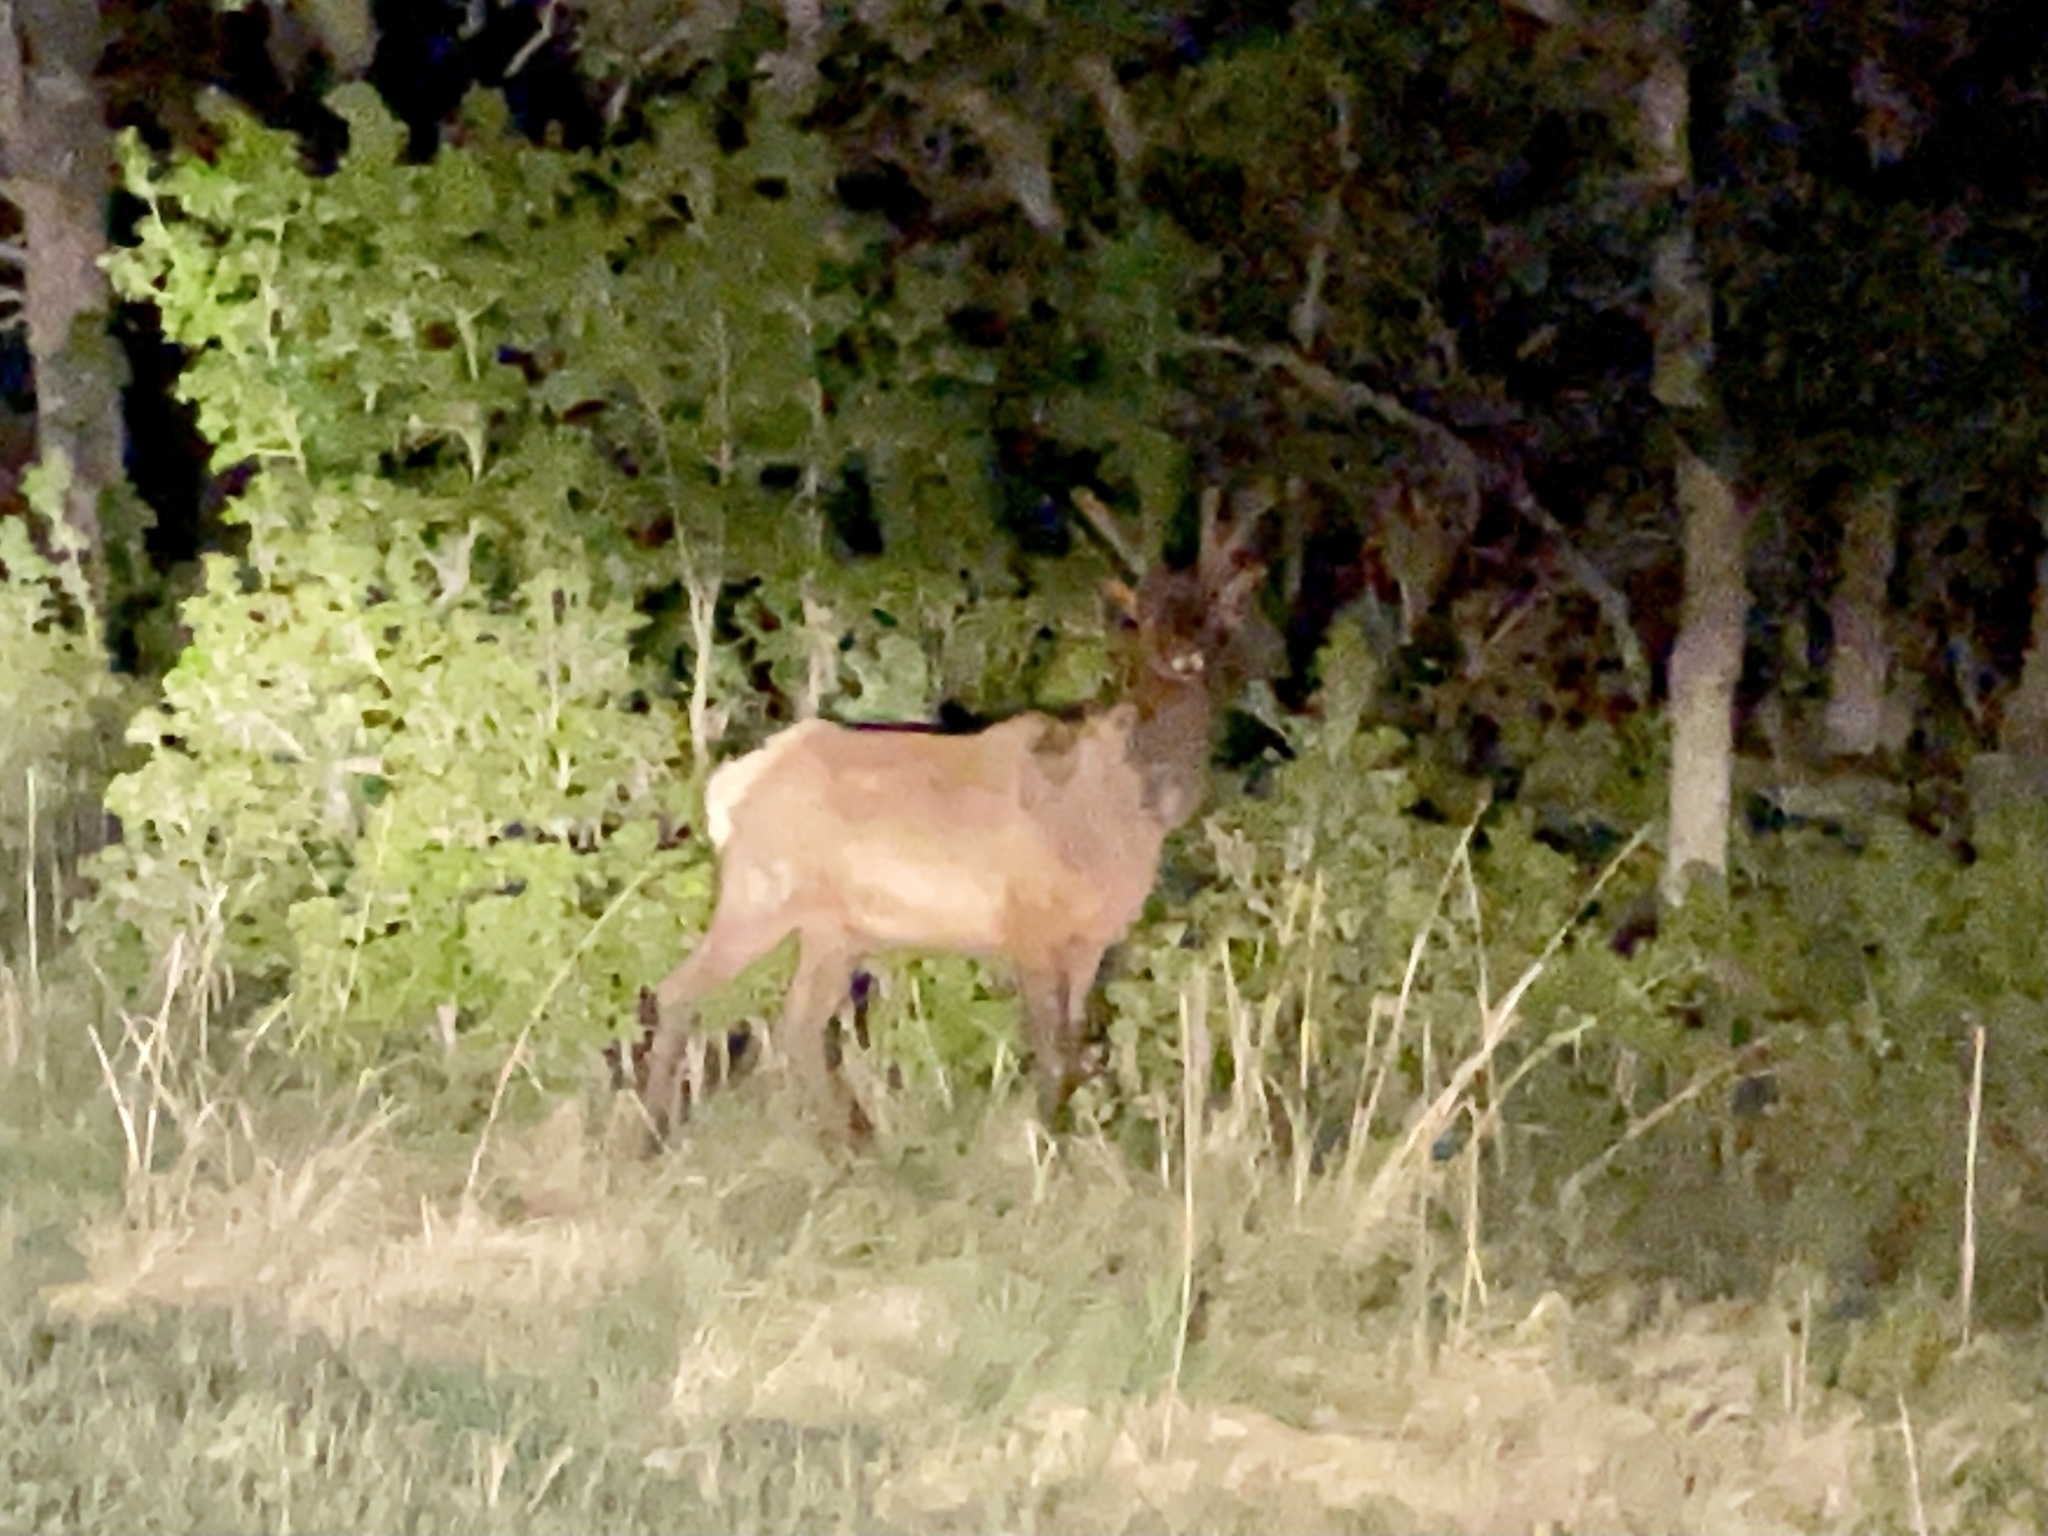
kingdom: Animalia
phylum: Chordata
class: Mammalia
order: Artiodactyla
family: Cervidae
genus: Cervus
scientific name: Cervus elaphus
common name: Red deer
